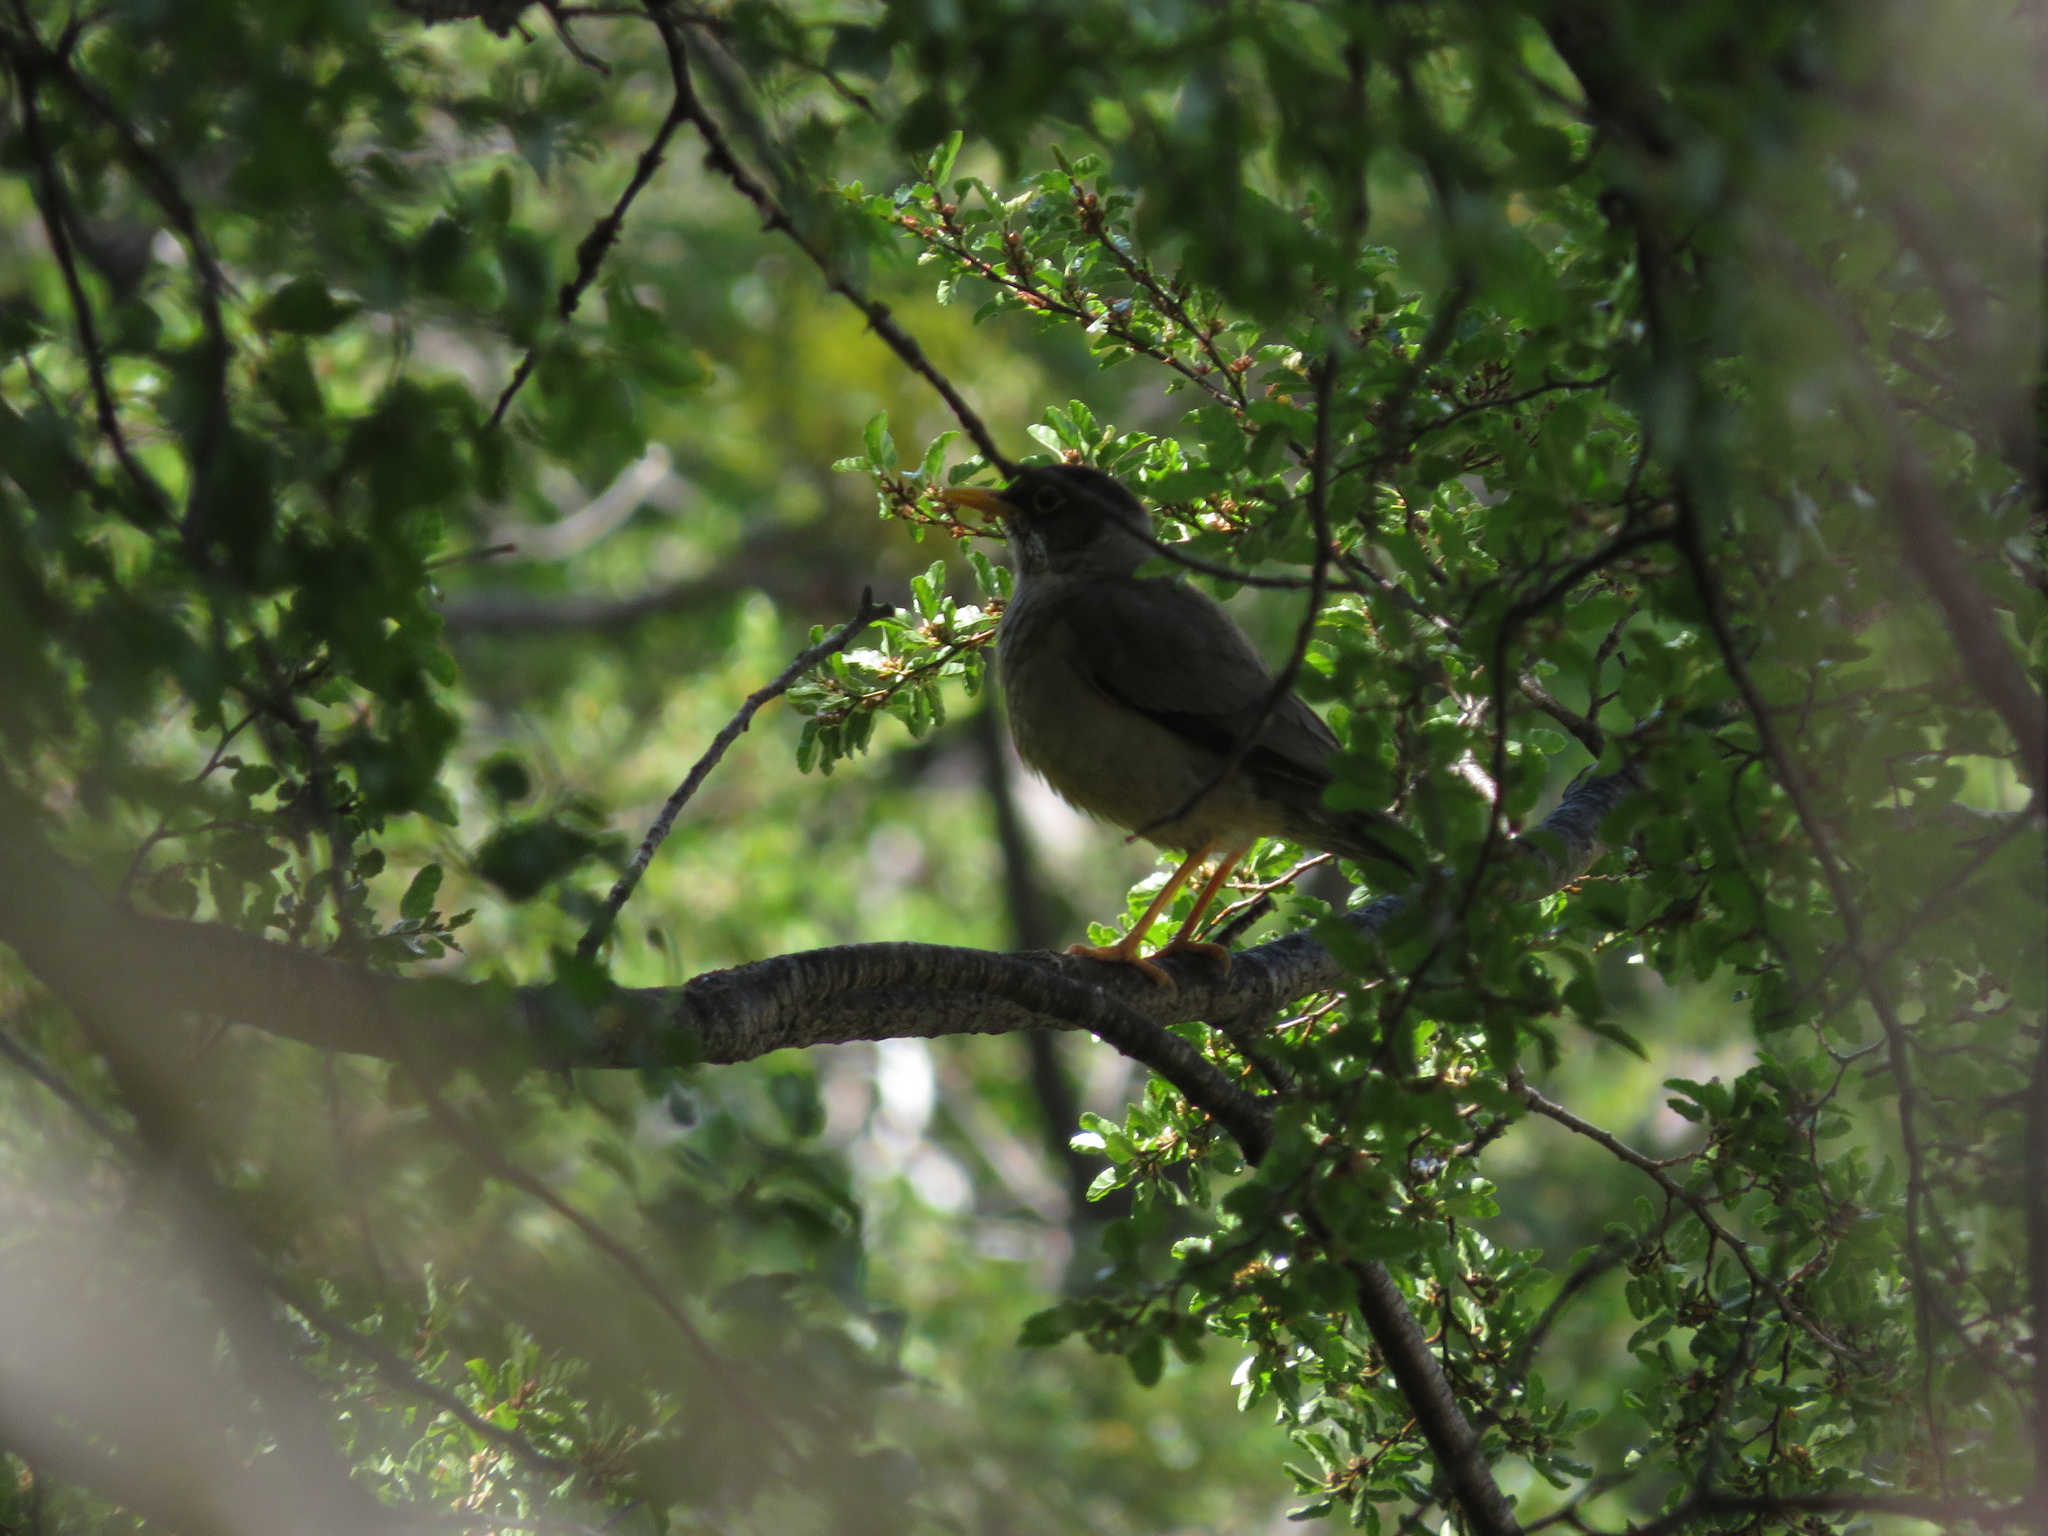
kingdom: Animalia
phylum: Chordata
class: Aves
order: Passeriformes
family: Turdidae
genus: Turdus
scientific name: Turdus falcklandii
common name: Austral thrush
